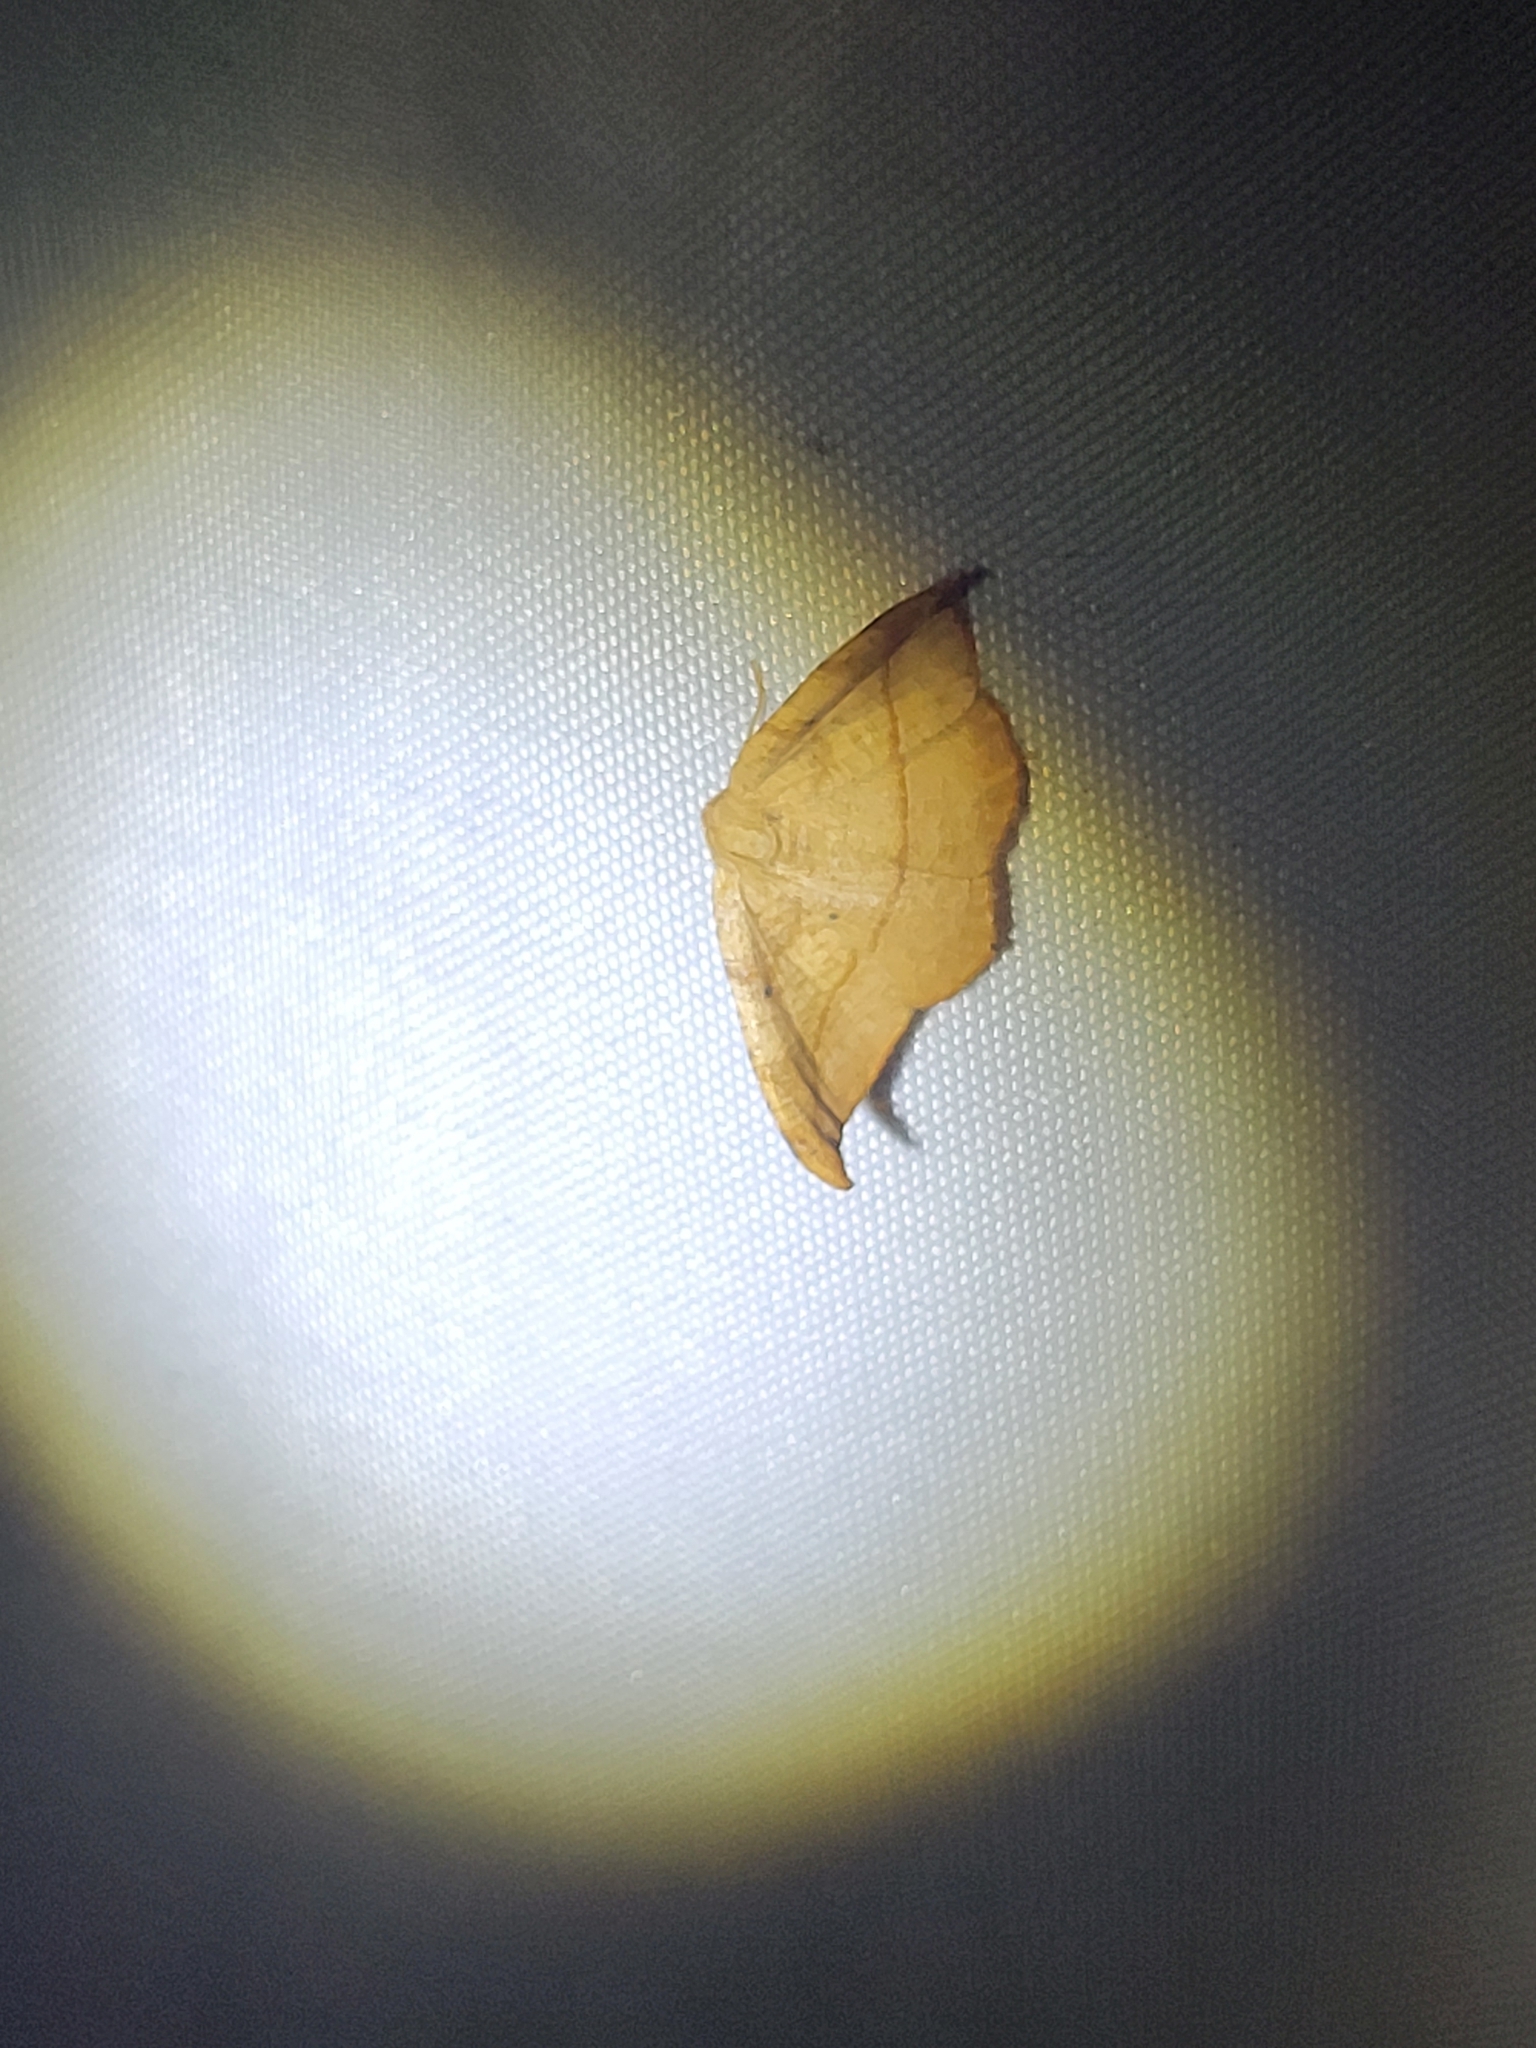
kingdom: Animalia
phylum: Arthropoda
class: Insecta
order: Lepidoptera
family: Geometridae
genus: Patalene
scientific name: Patalene olyzonaria
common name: Juniper geometer moth
